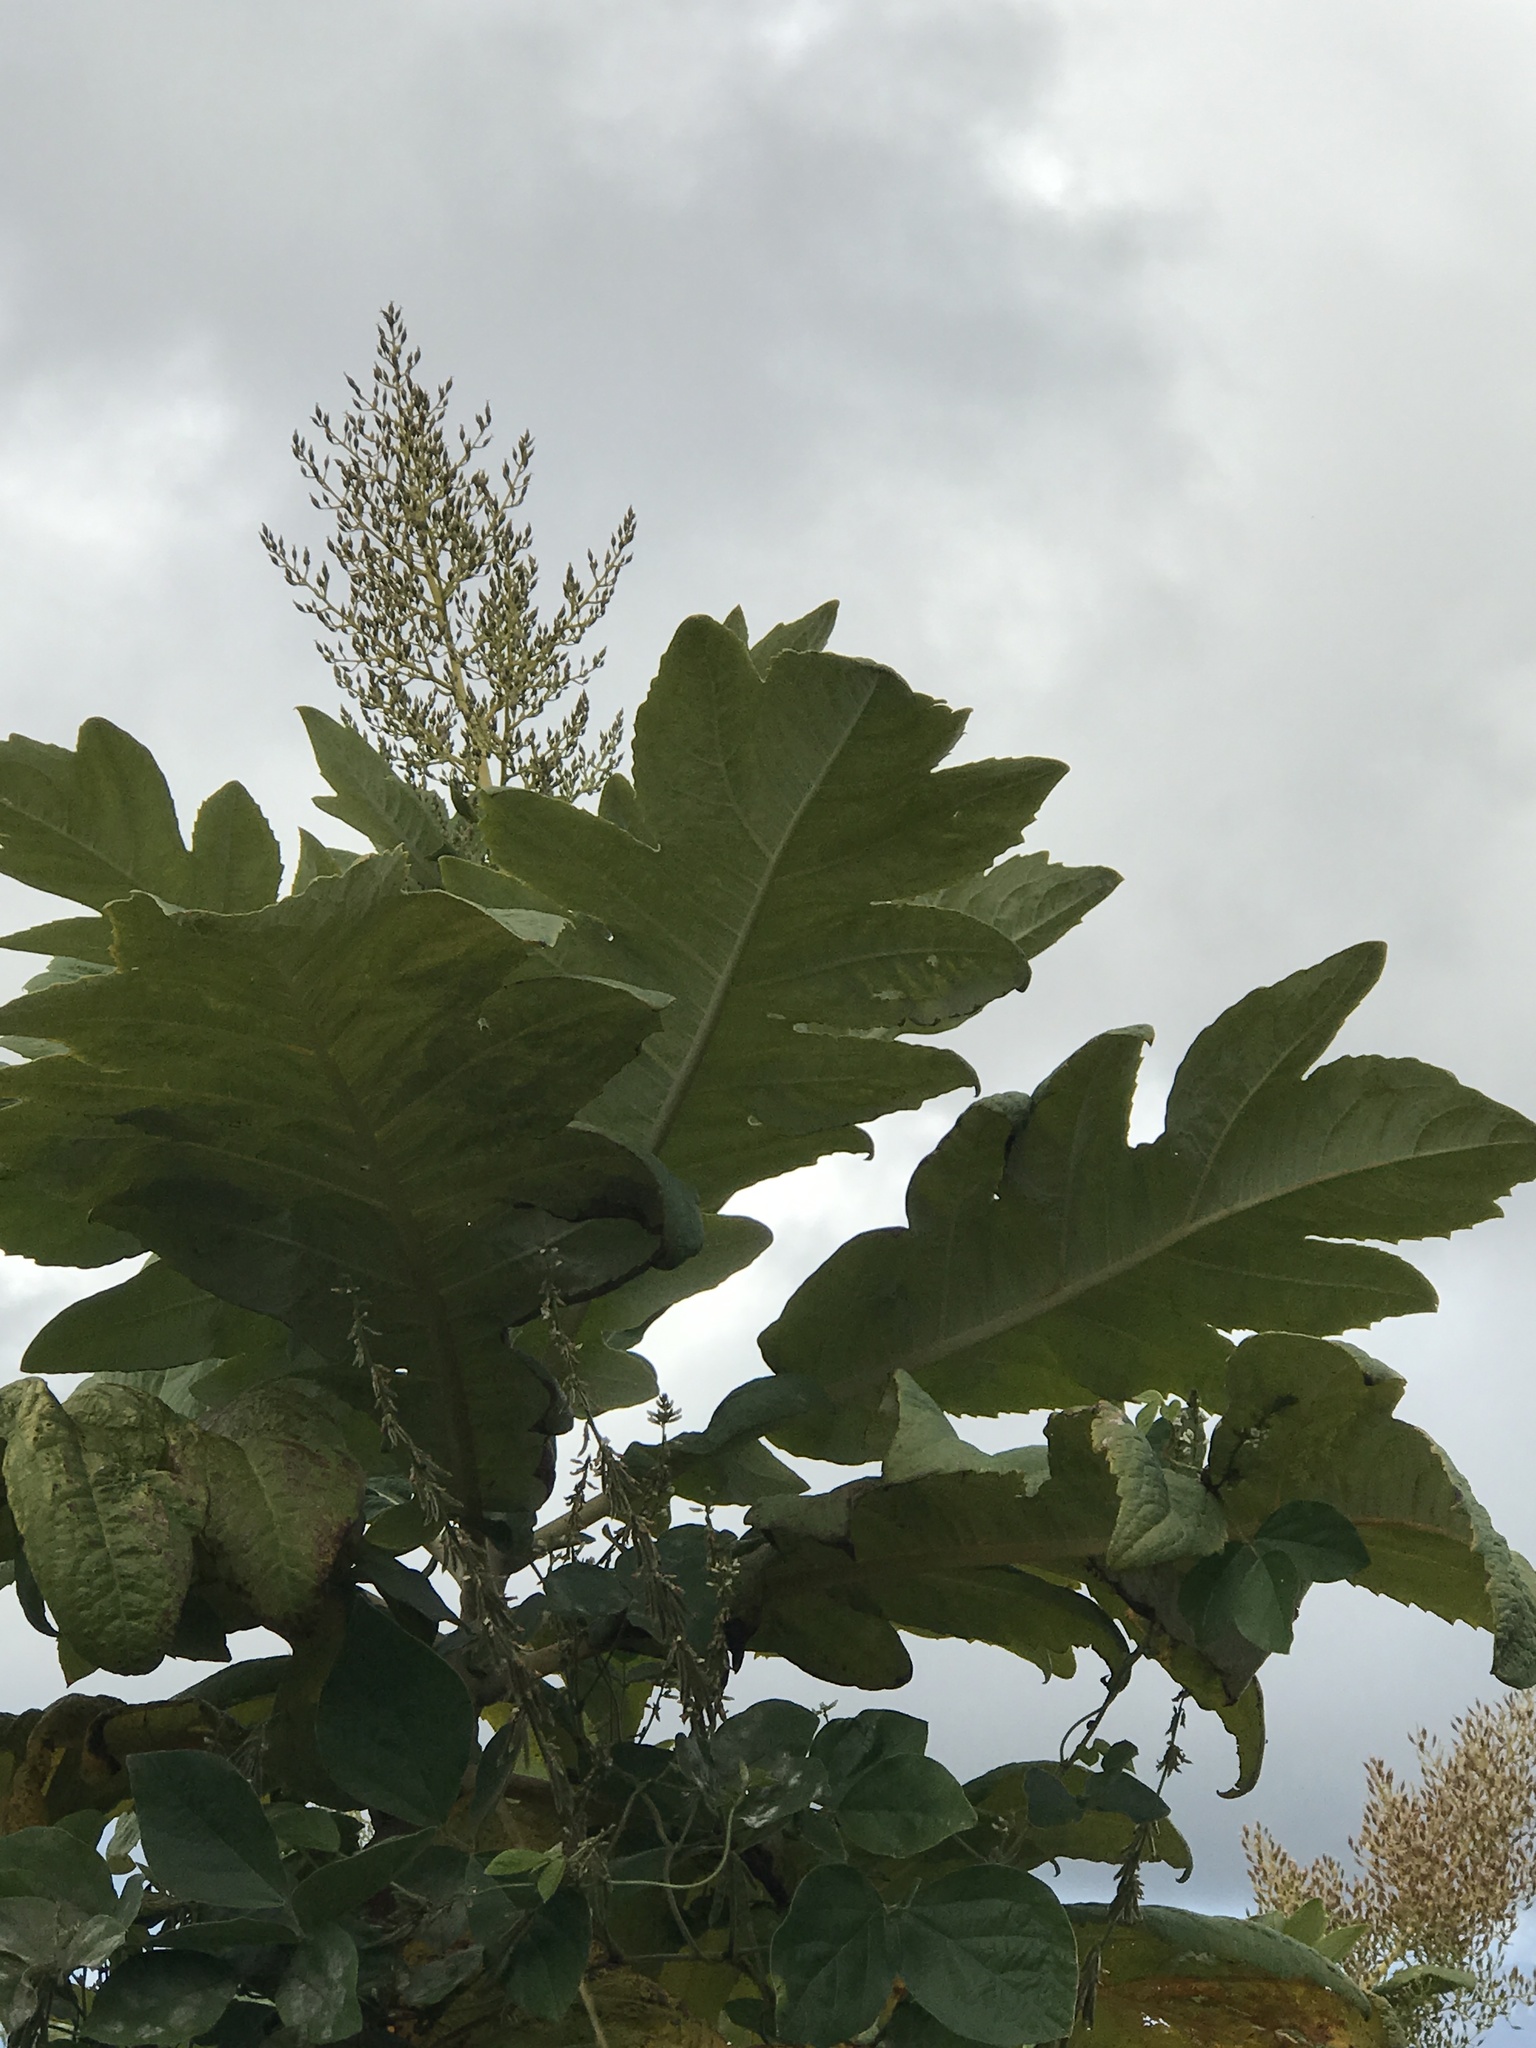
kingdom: Plantae
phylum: Tracheophyta
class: Magnoliopsida
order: Ranunculales
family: Papaveraceae
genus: Bocconia
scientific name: Bocconia frutescens
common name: Tree poppy
